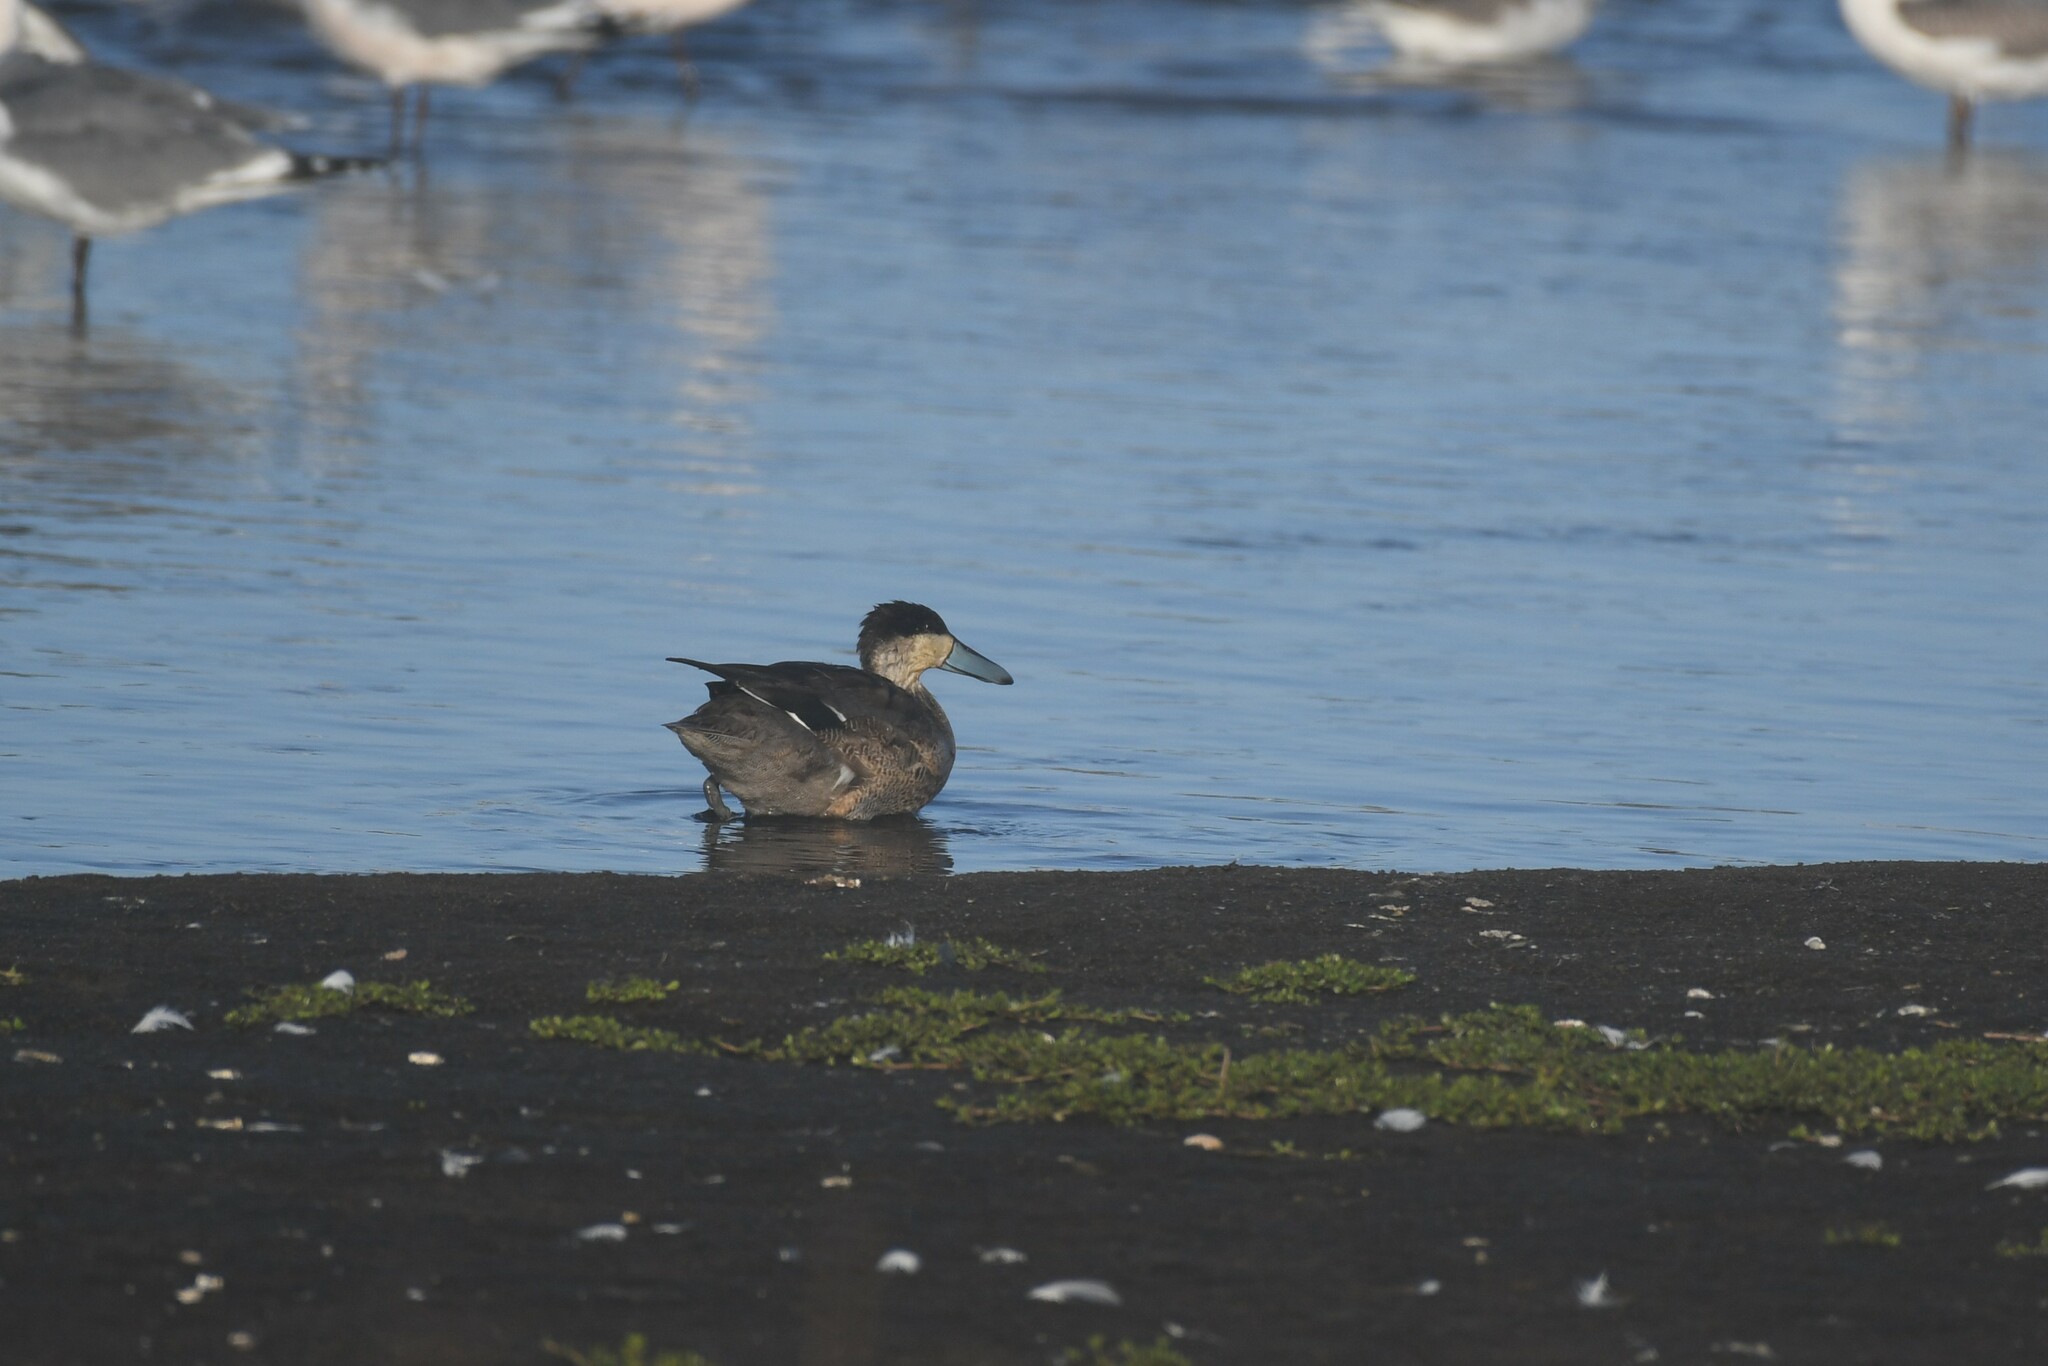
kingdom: Animalia
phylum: Chordata
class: Aves
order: Anseriformes
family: Anatidae
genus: Spatula
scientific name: Spatula puna
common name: Puna teal
